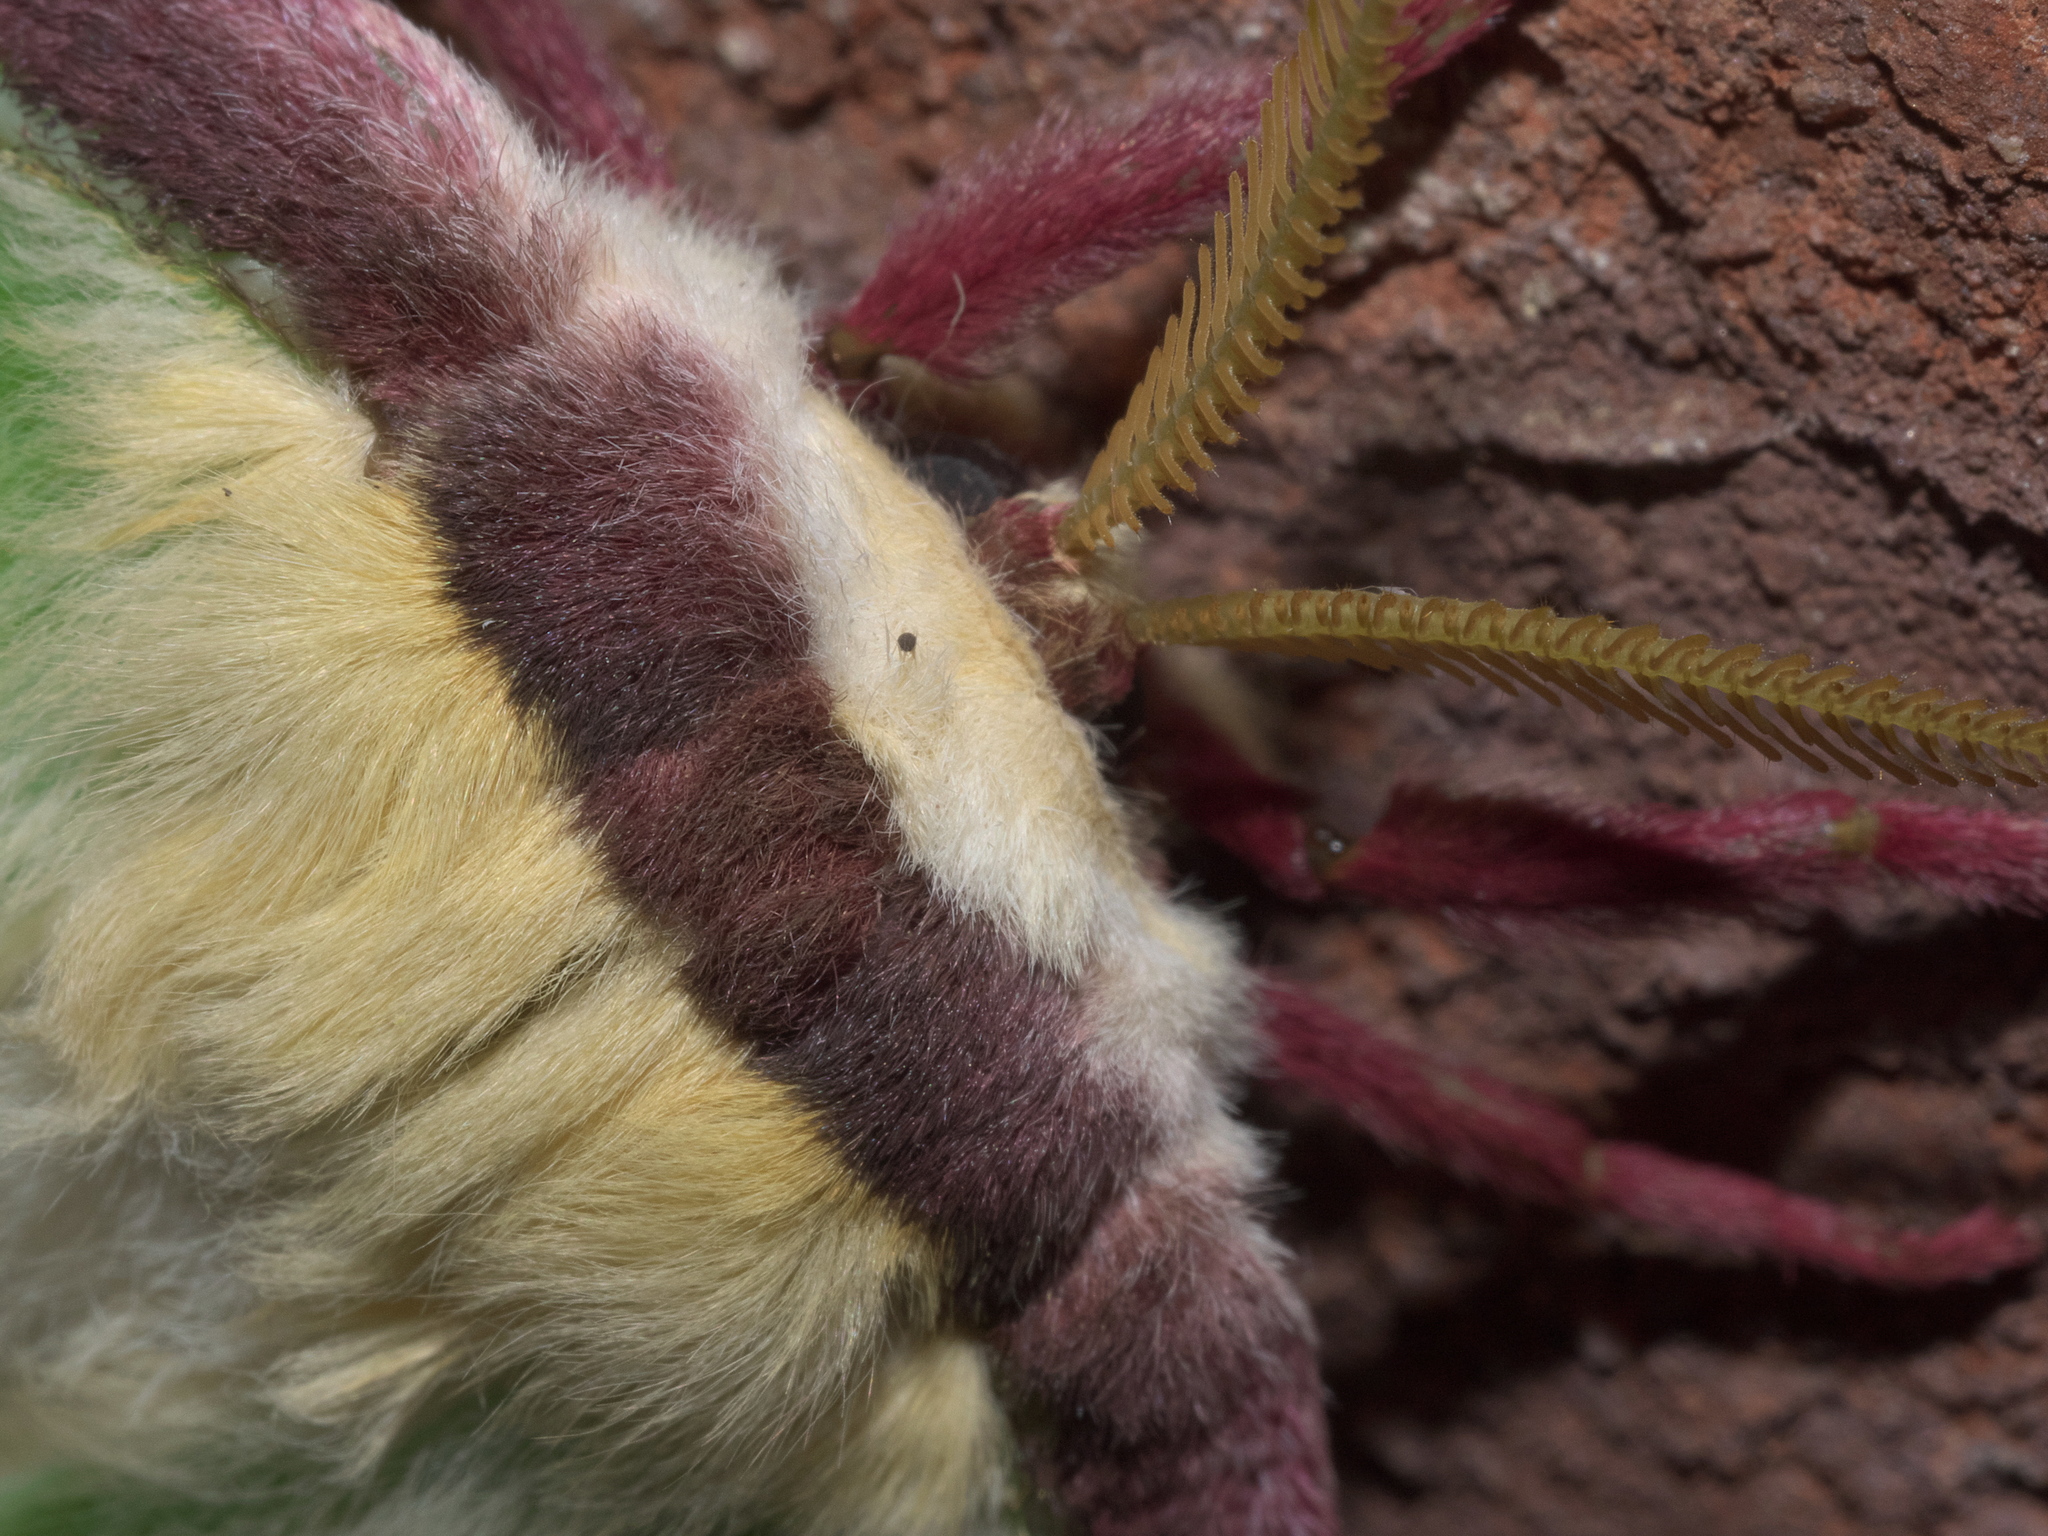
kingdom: Animalia
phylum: Arthropoda
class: Insecta
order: Lepidoptera
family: Saturniidae
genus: Actias
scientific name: Actias luna
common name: Luna moth
